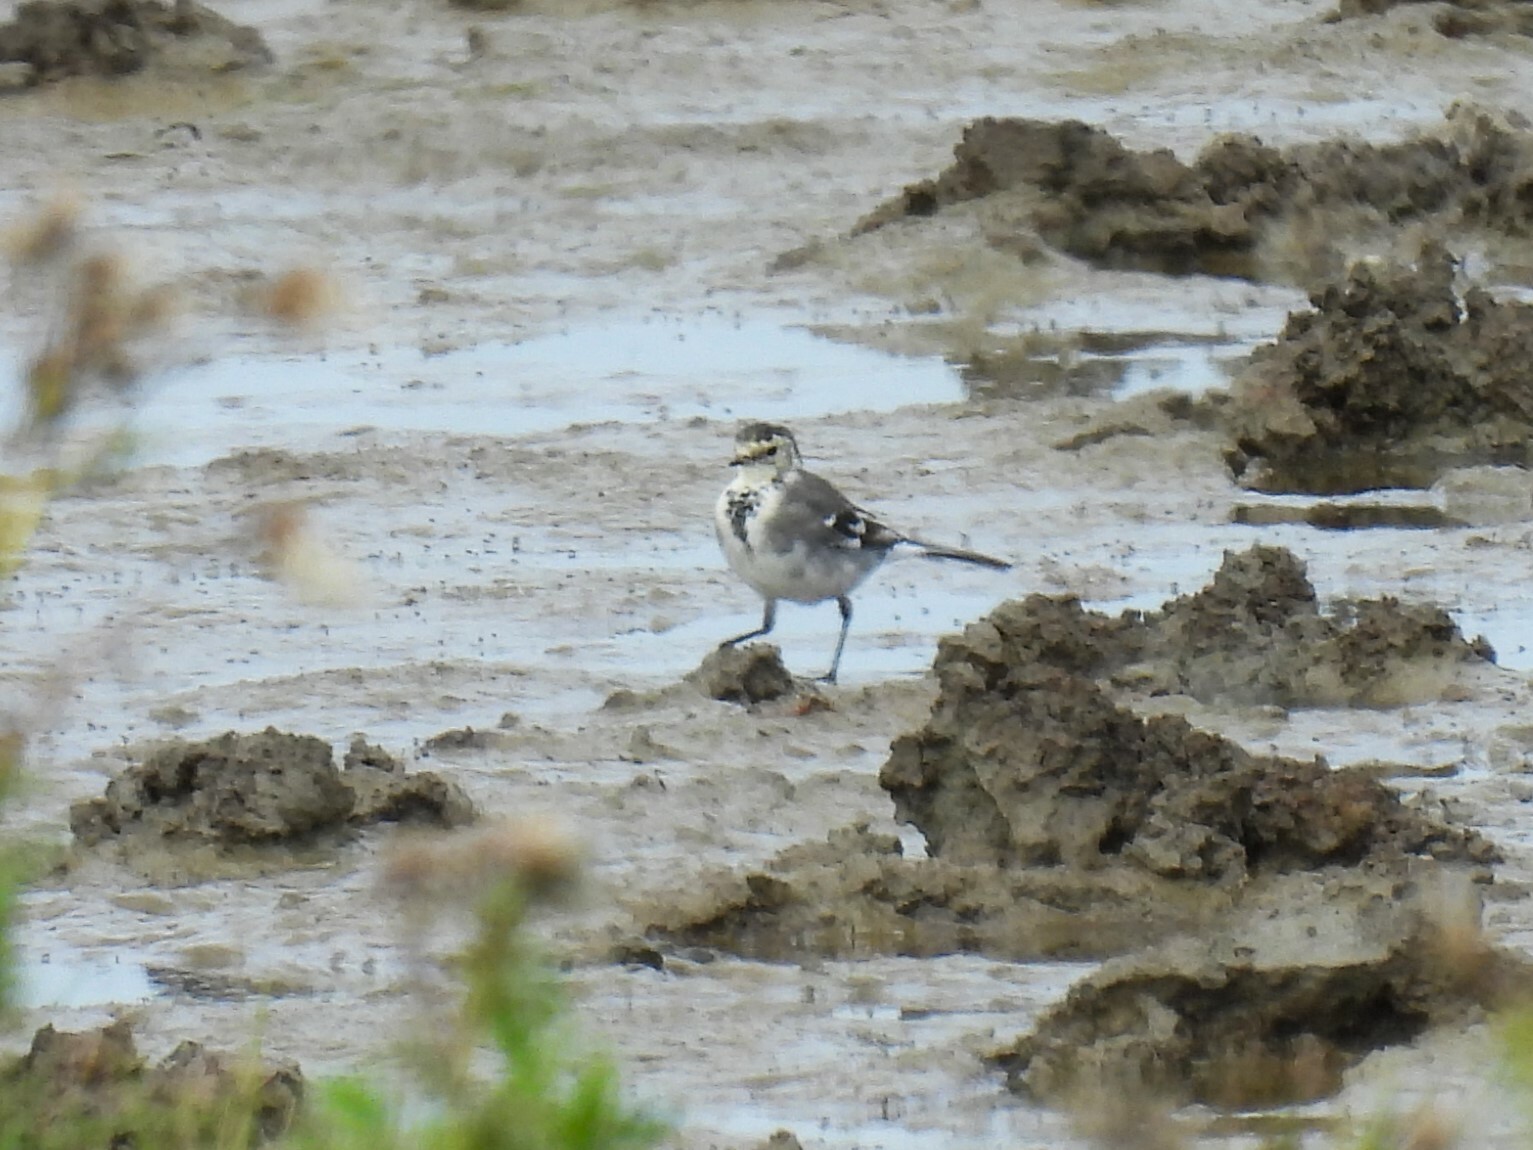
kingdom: Animalia
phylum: Chordata
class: Aves
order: Passeriformes
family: Motacillidae
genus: Motacilla
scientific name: Motacilla alba
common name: White wagtail
